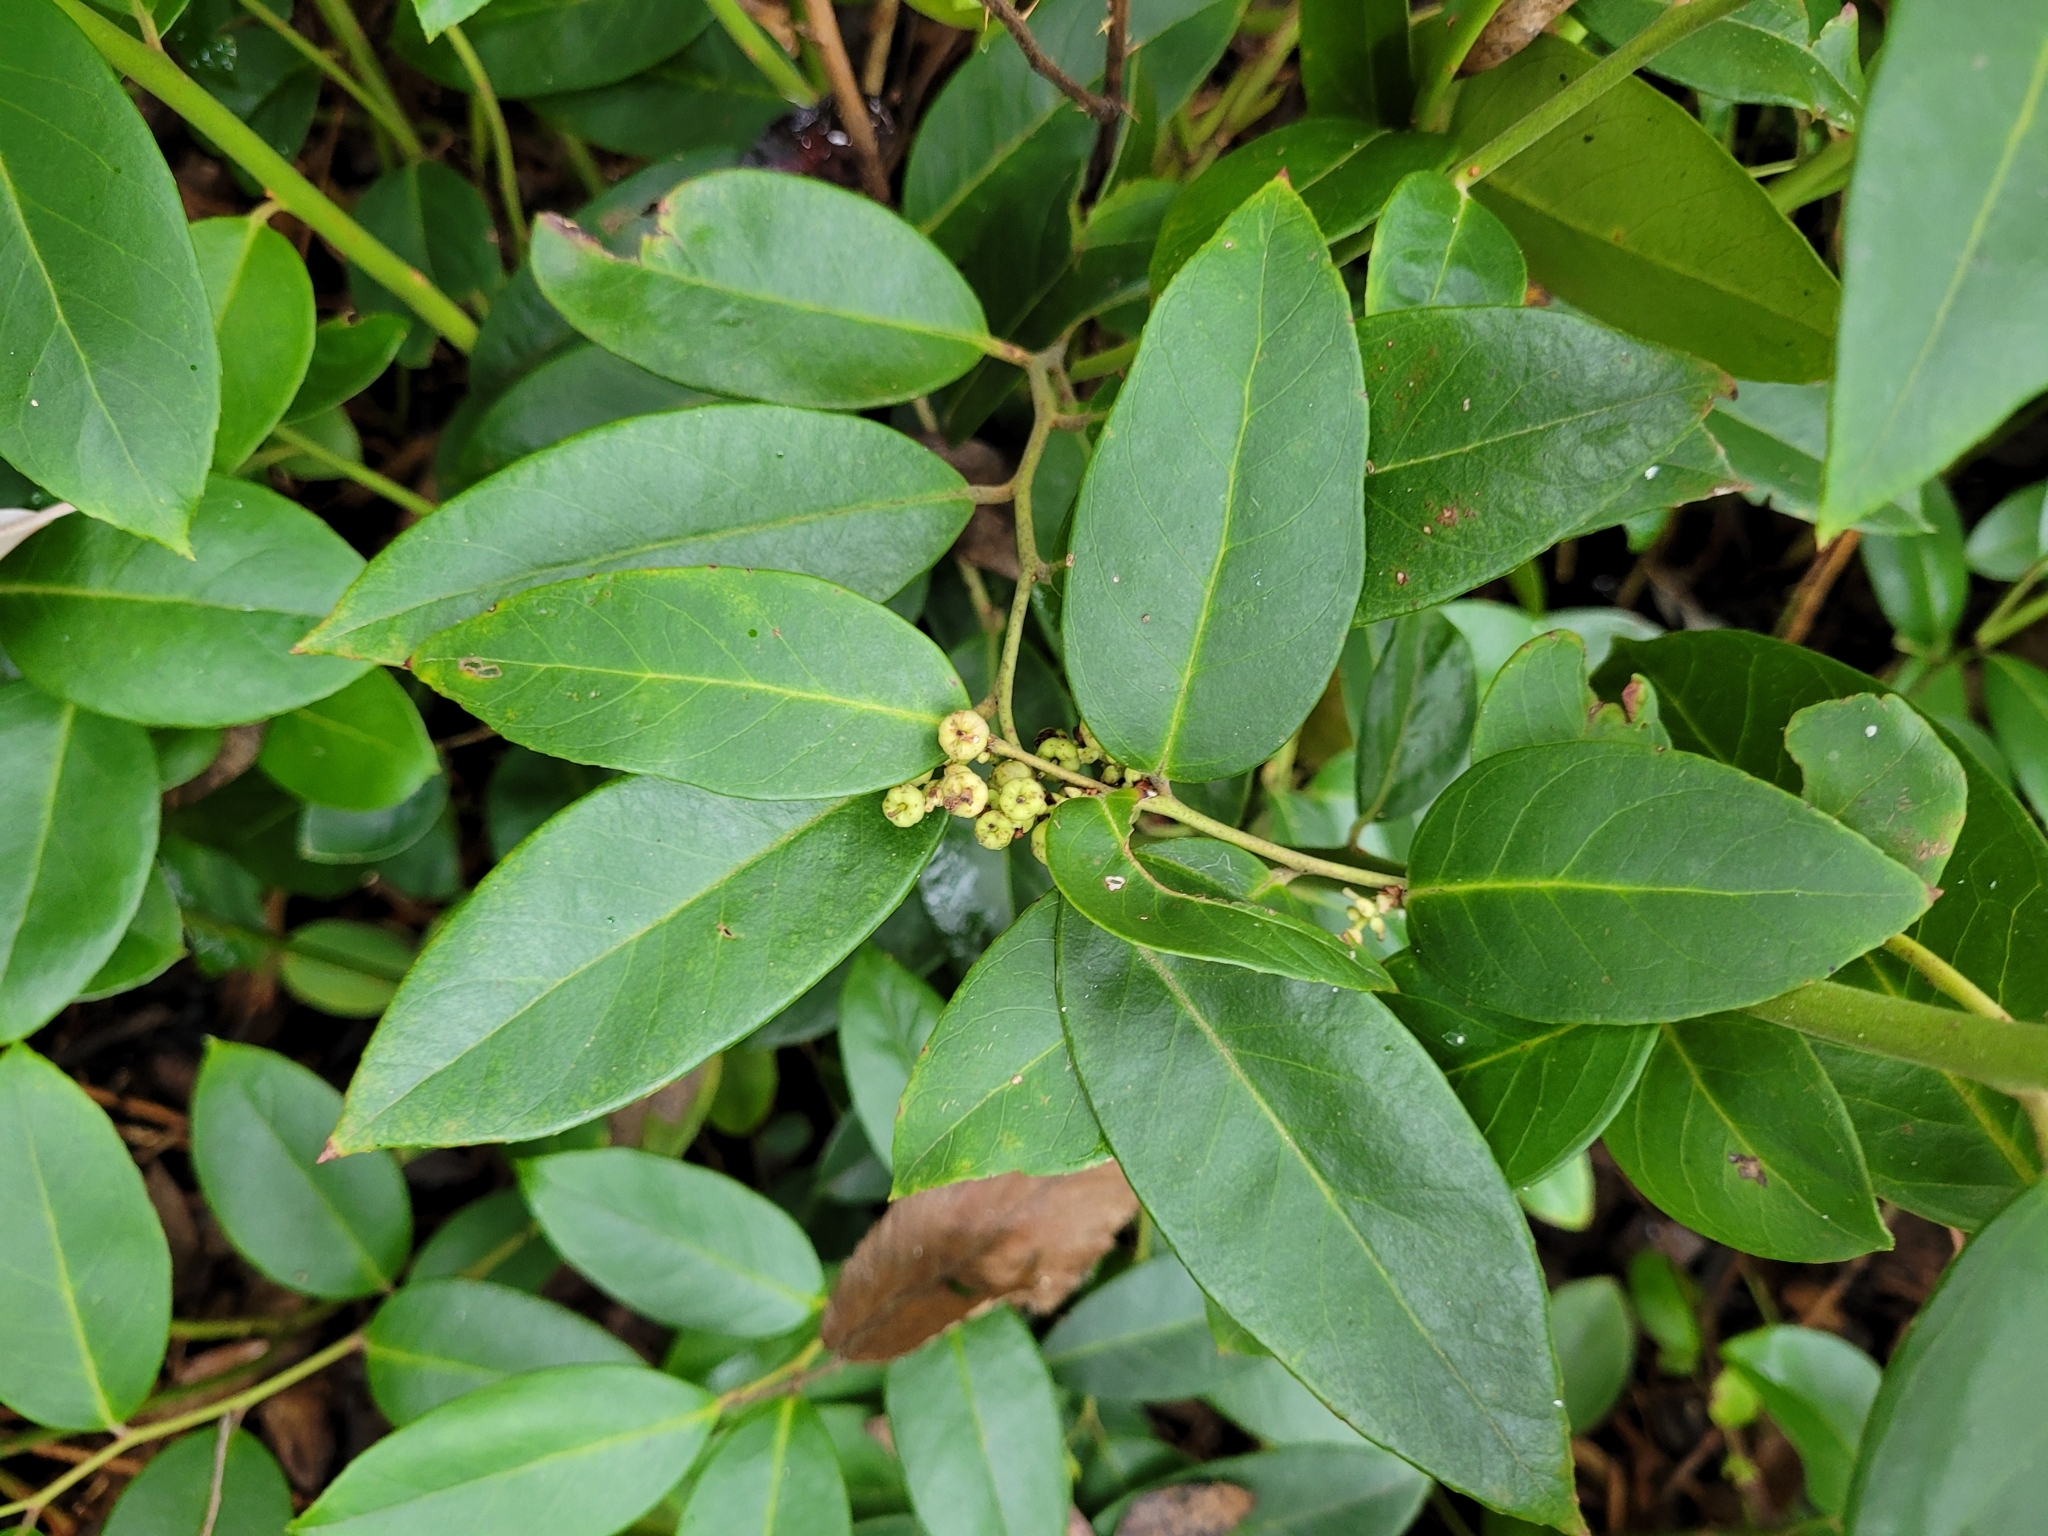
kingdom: Plantae
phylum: Tracheophyta
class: Magnoliopsida
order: Ericales
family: Ericaceae
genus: Leucothoe
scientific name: Leucothoe axillaris
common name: Leucothoe
